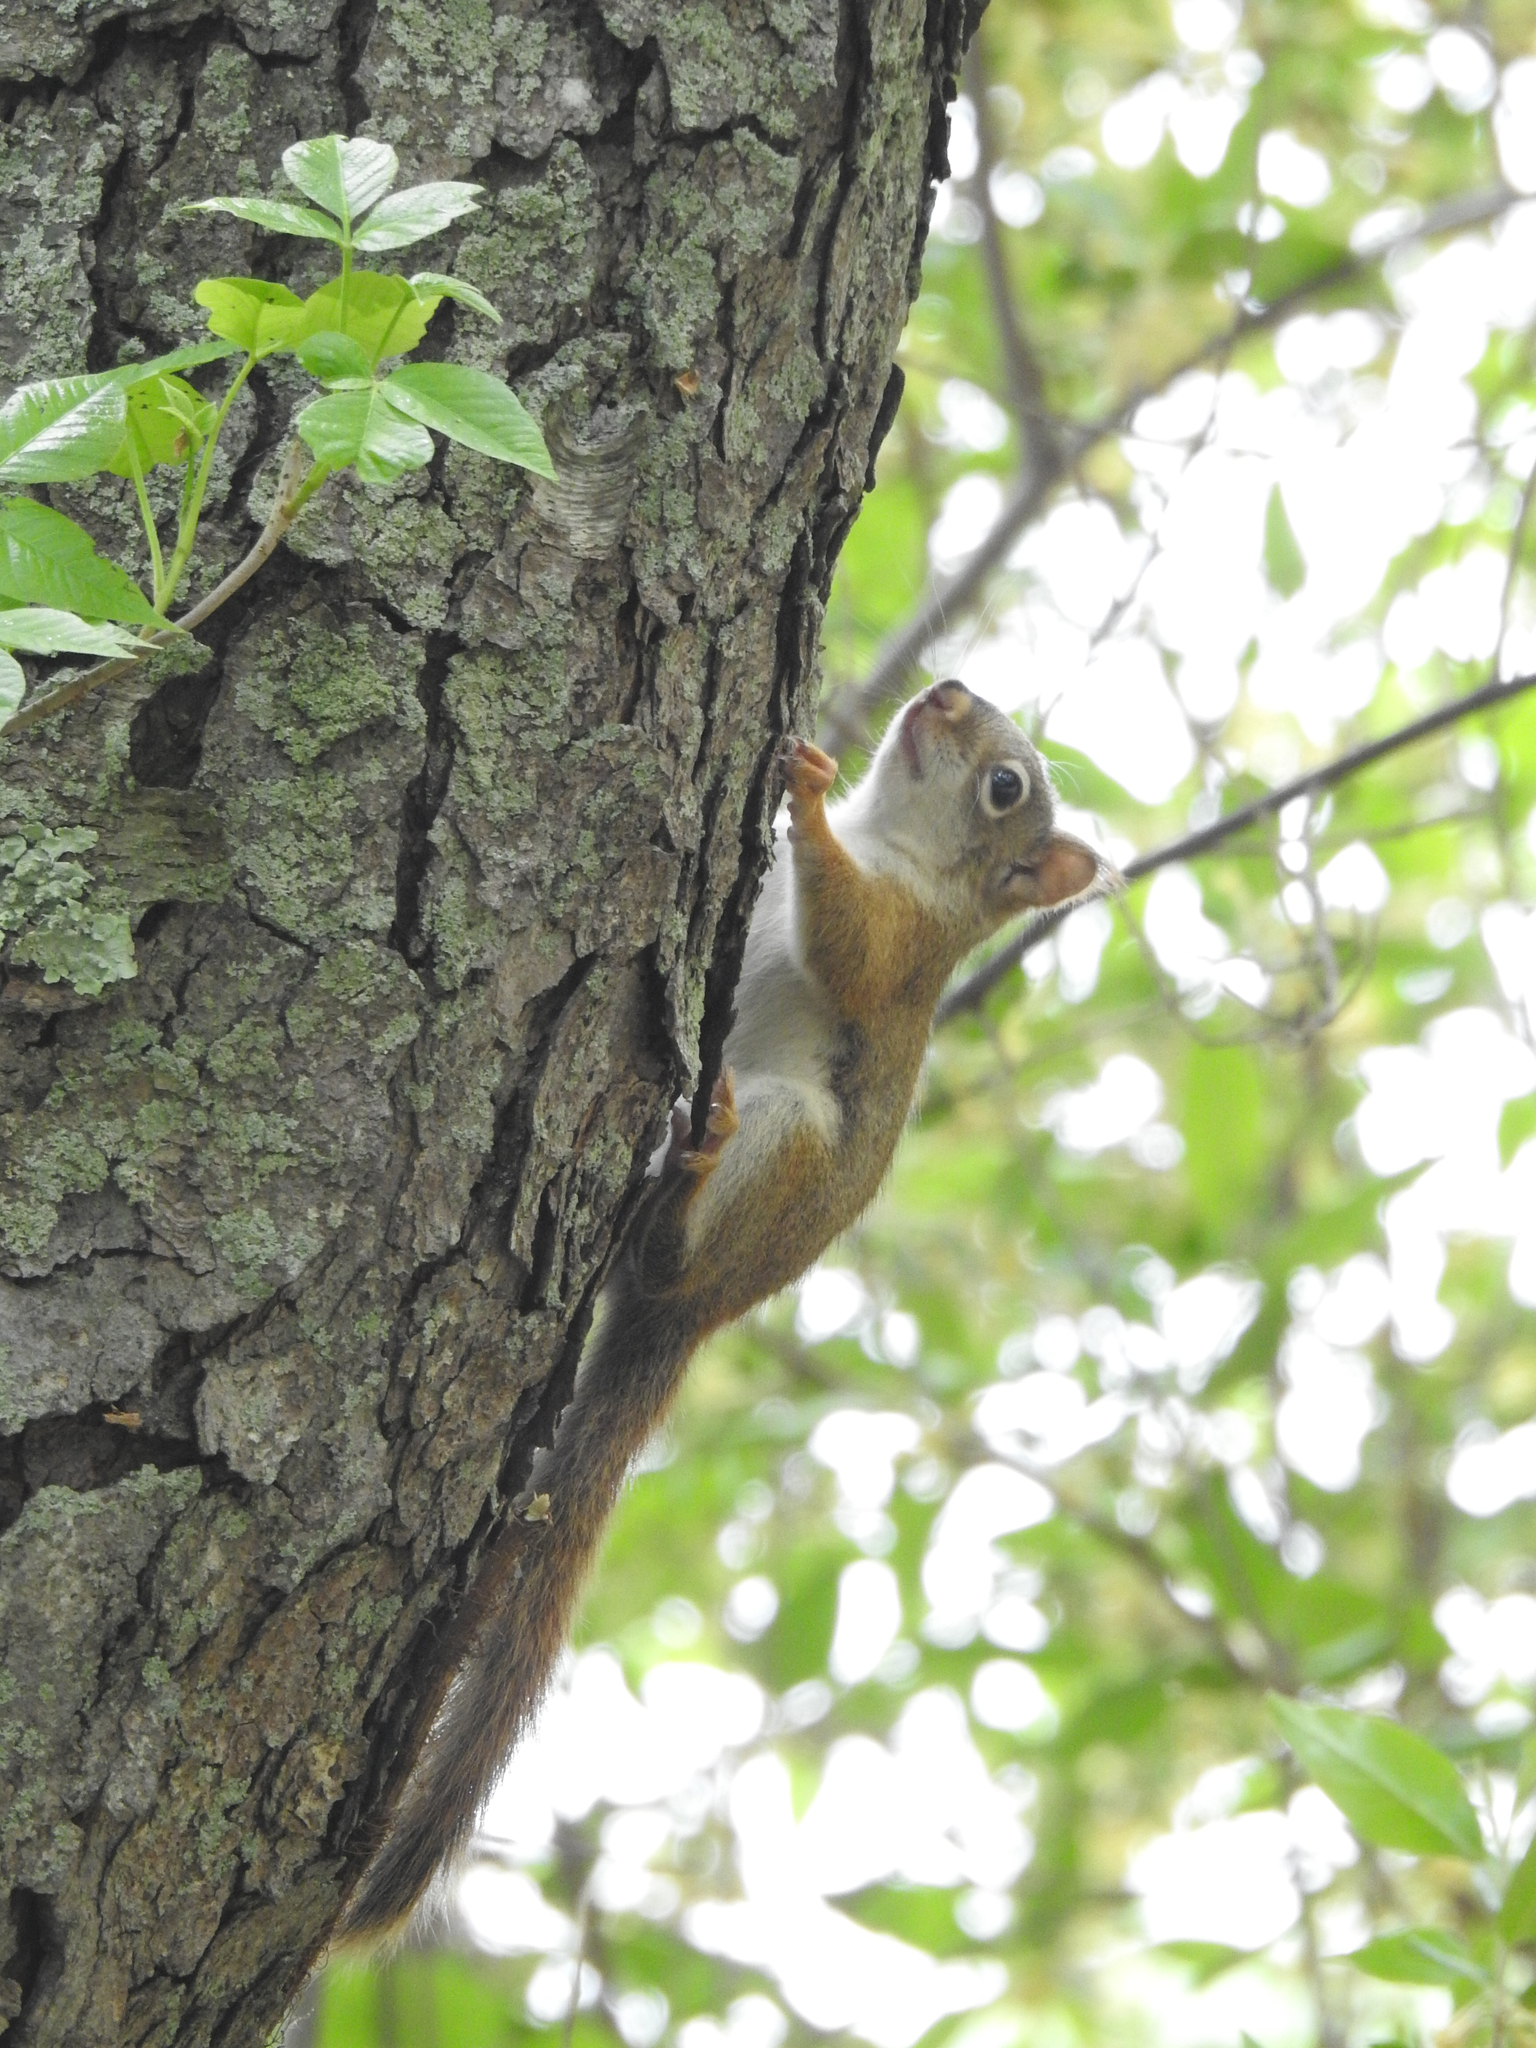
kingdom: Animalia
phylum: Chordata
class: Mammalia
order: Rodentia
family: Sciuridae
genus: Tamiasciurus
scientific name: Tamiasciurus hudsonicus
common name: Red squirrel
